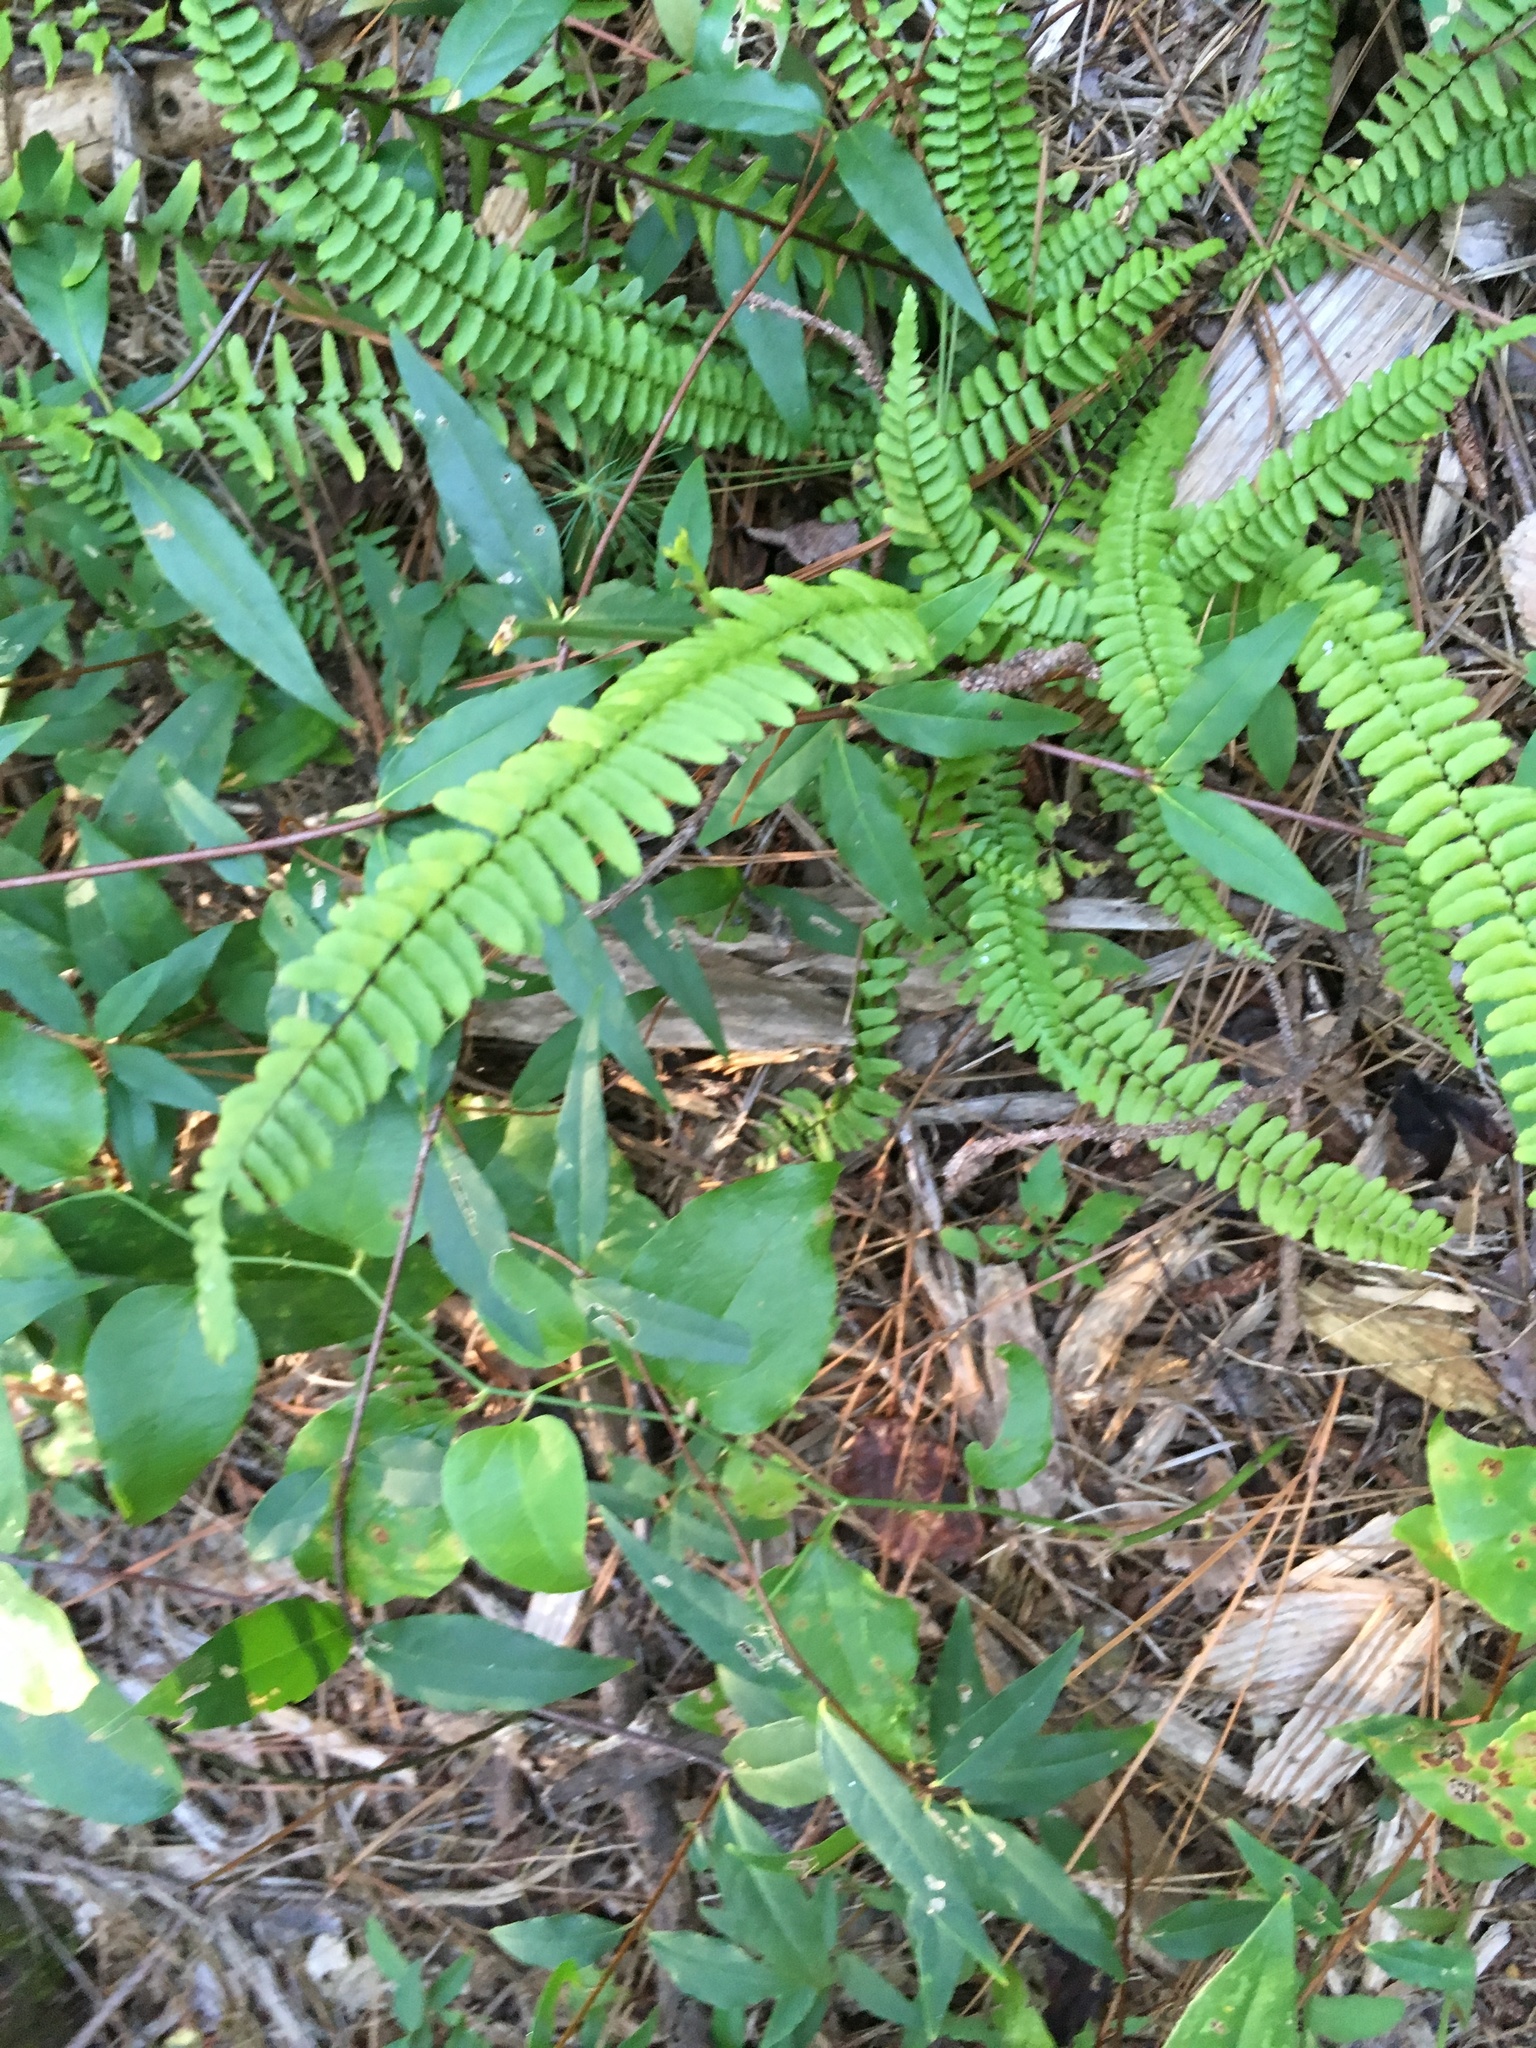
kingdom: Plantae
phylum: Tracheophyta
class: Polypodiopsida
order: Polypodiales
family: Aspleniaceae
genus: Asplenium
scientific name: Asplenium platyneuron
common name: Ebony spleenwort
